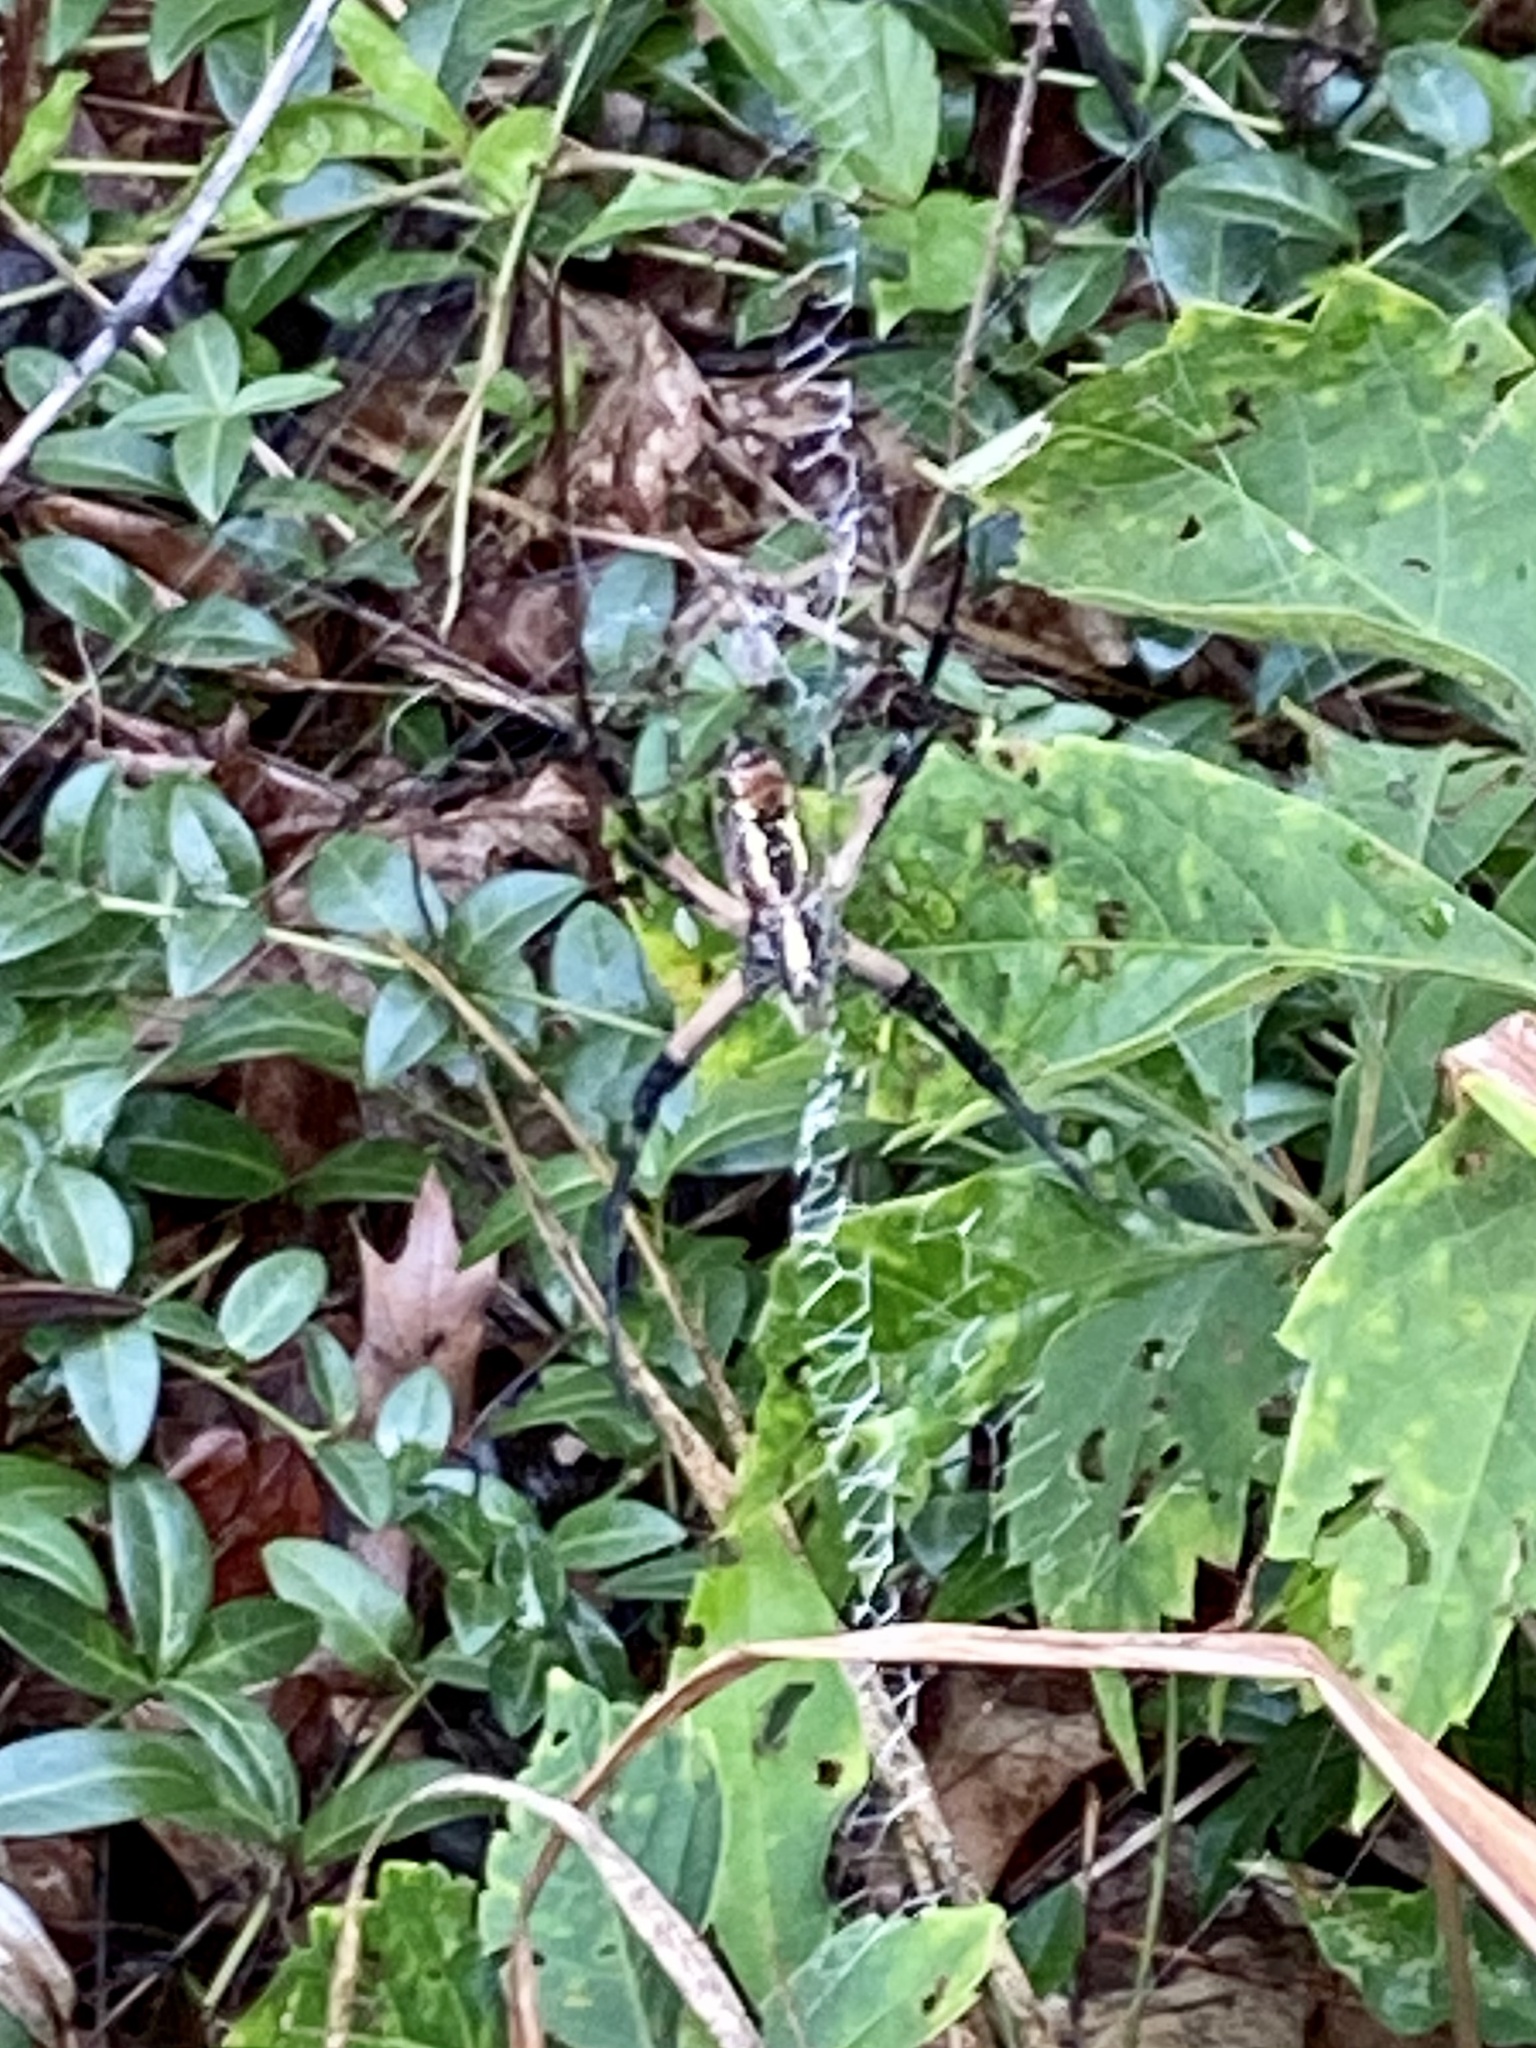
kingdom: Animalia
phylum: Arthropoda
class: Arachnida
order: Araneae
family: Araneidae
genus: Argiope
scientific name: Argiope aurantia
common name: Orb weavers
